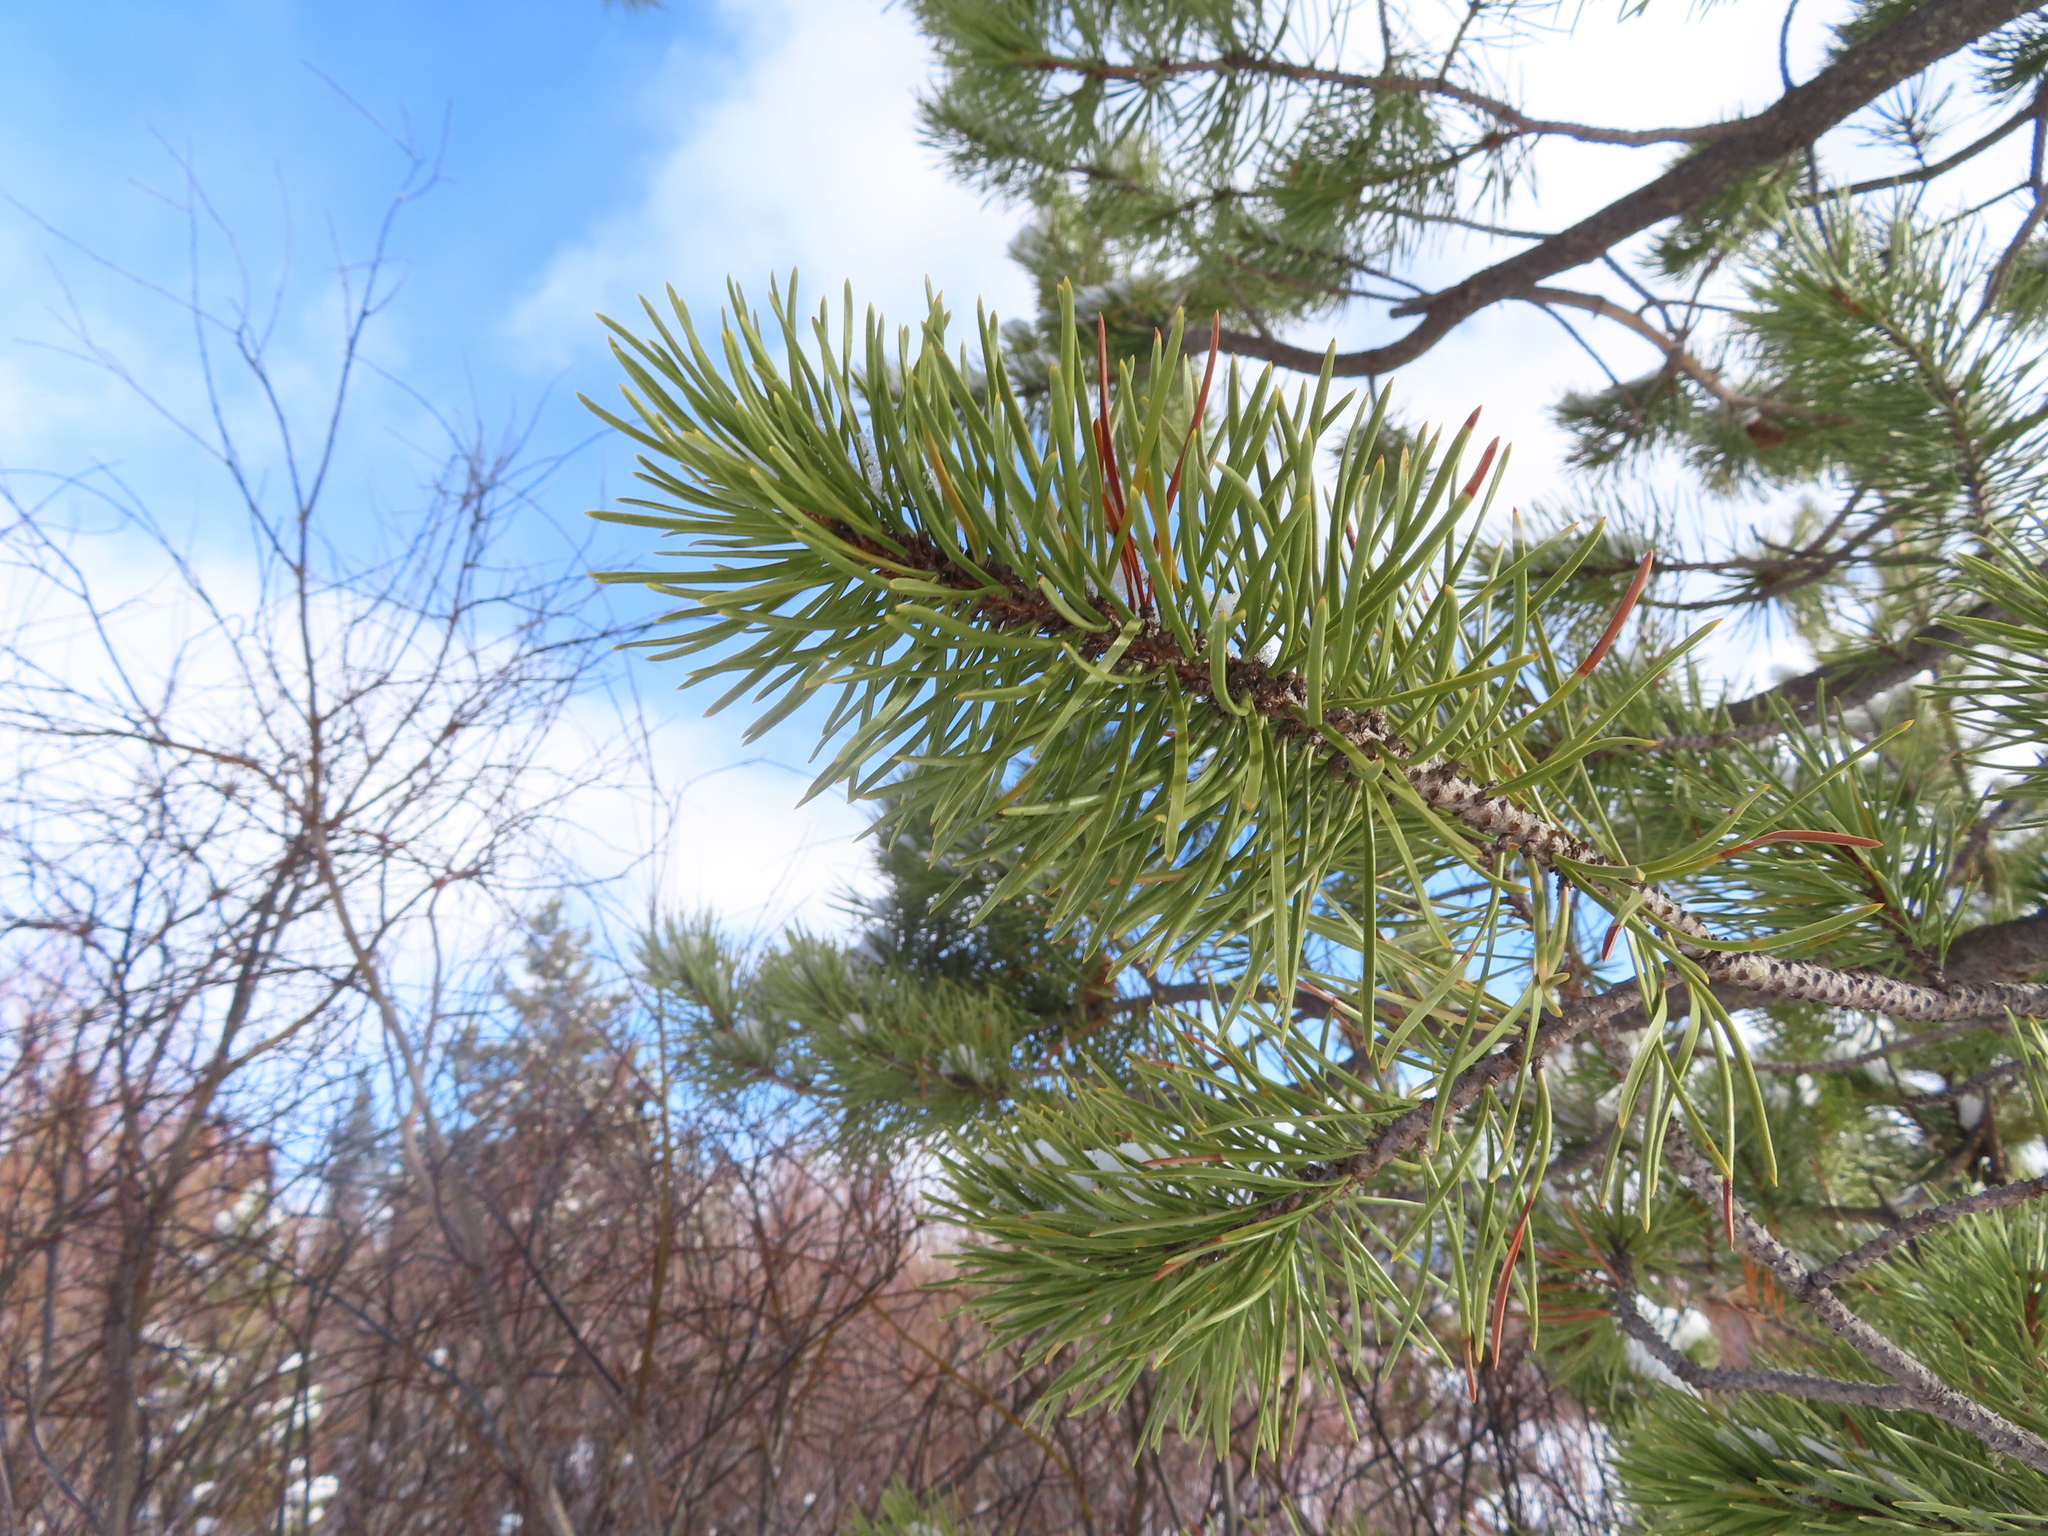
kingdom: Plantae
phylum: Tracheophyta
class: Pinopsida
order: Pinales
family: Pinaceae
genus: Pinus
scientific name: Pinus contorta
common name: Lodgepole pine
